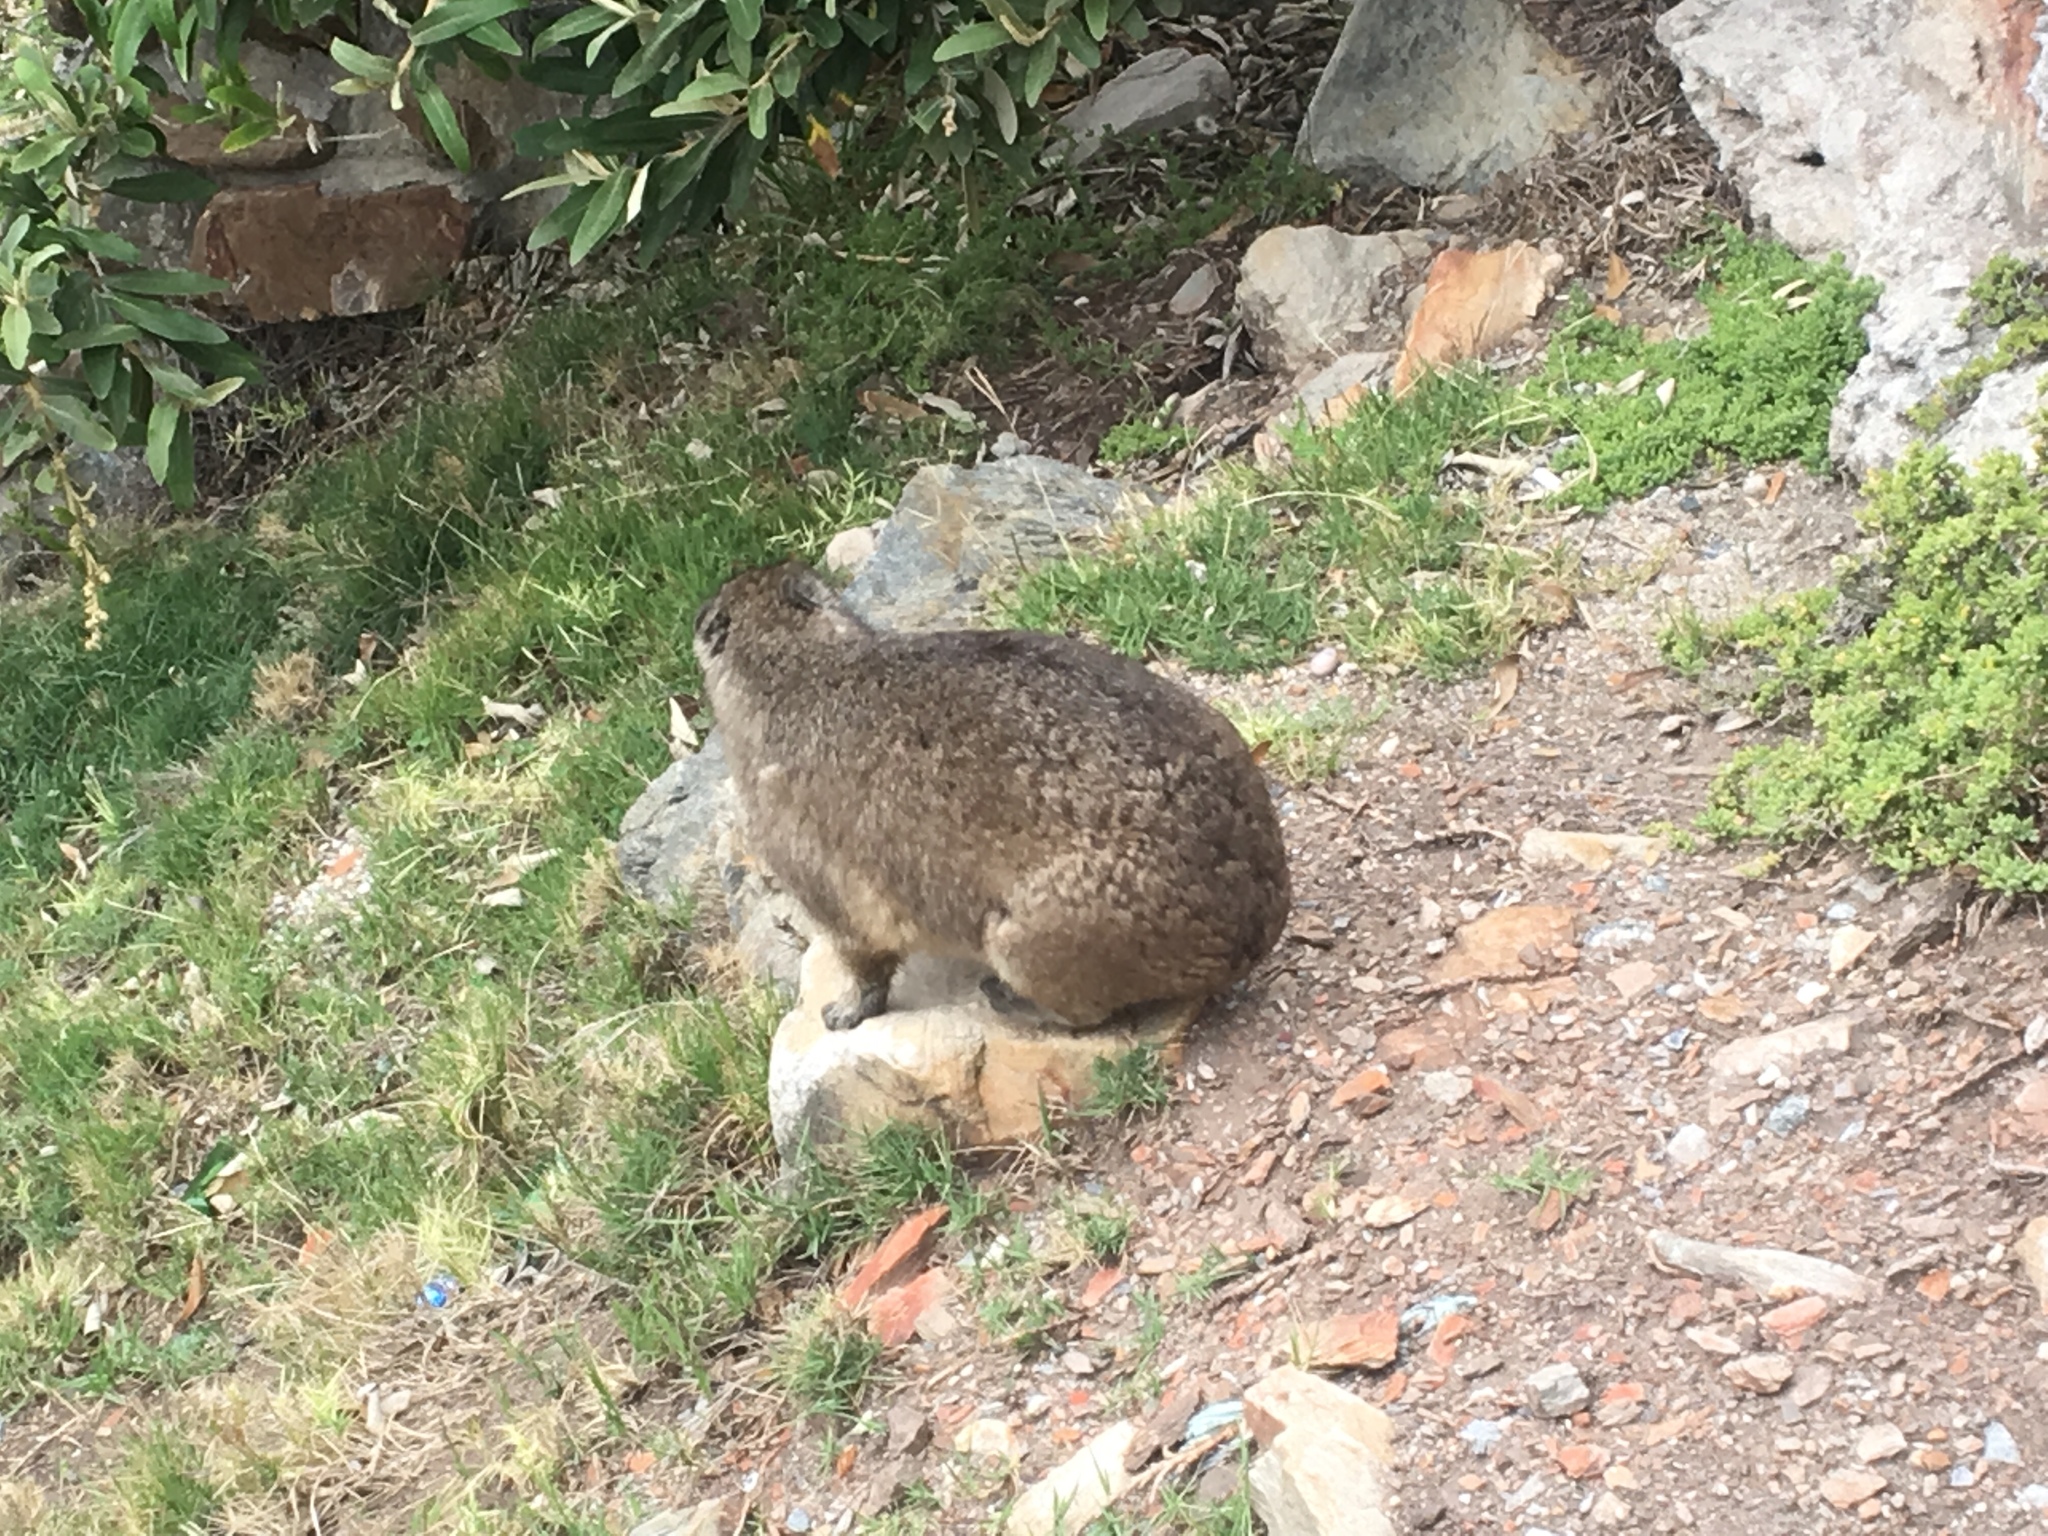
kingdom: Animalia
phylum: Chordata
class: Mammalia
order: Hyracoidea
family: Procaviidae
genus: Procavia
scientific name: Procavia capensis
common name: Rock hyrax
